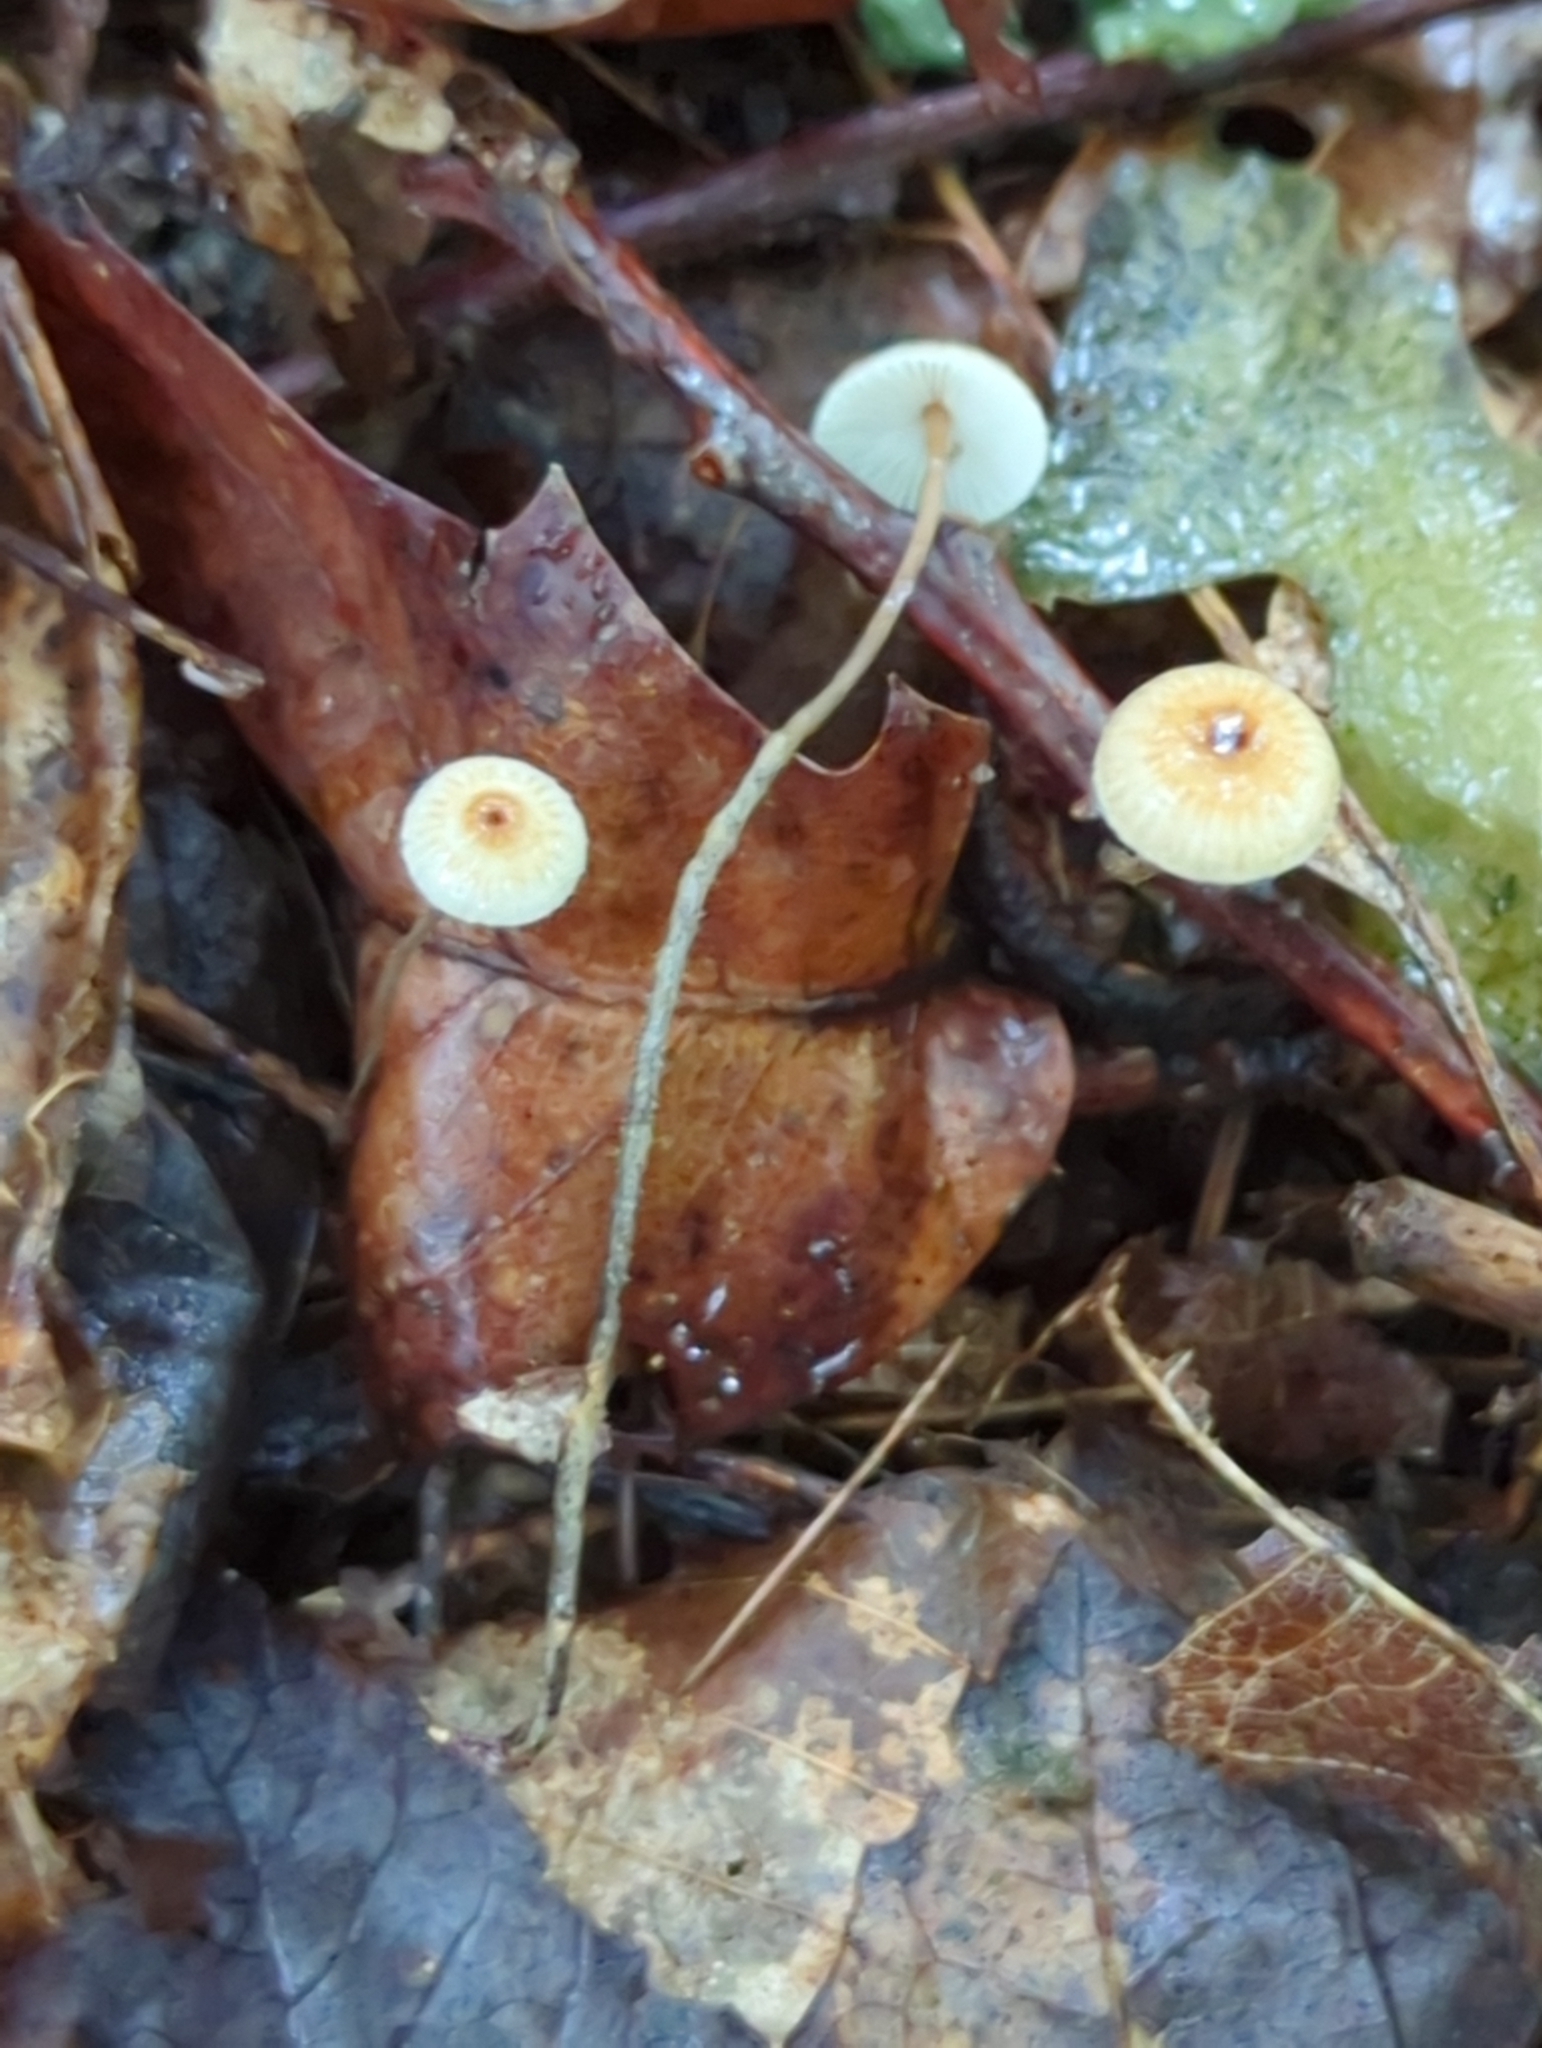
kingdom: Fungi
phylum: Basidiomycota
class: Agaricomycetes
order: Agaricales
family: Physalacriaceae
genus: Rhizomarasmius
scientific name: Rhizomarasmius pyrrhocephalus
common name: Hairy long stem marasmius
